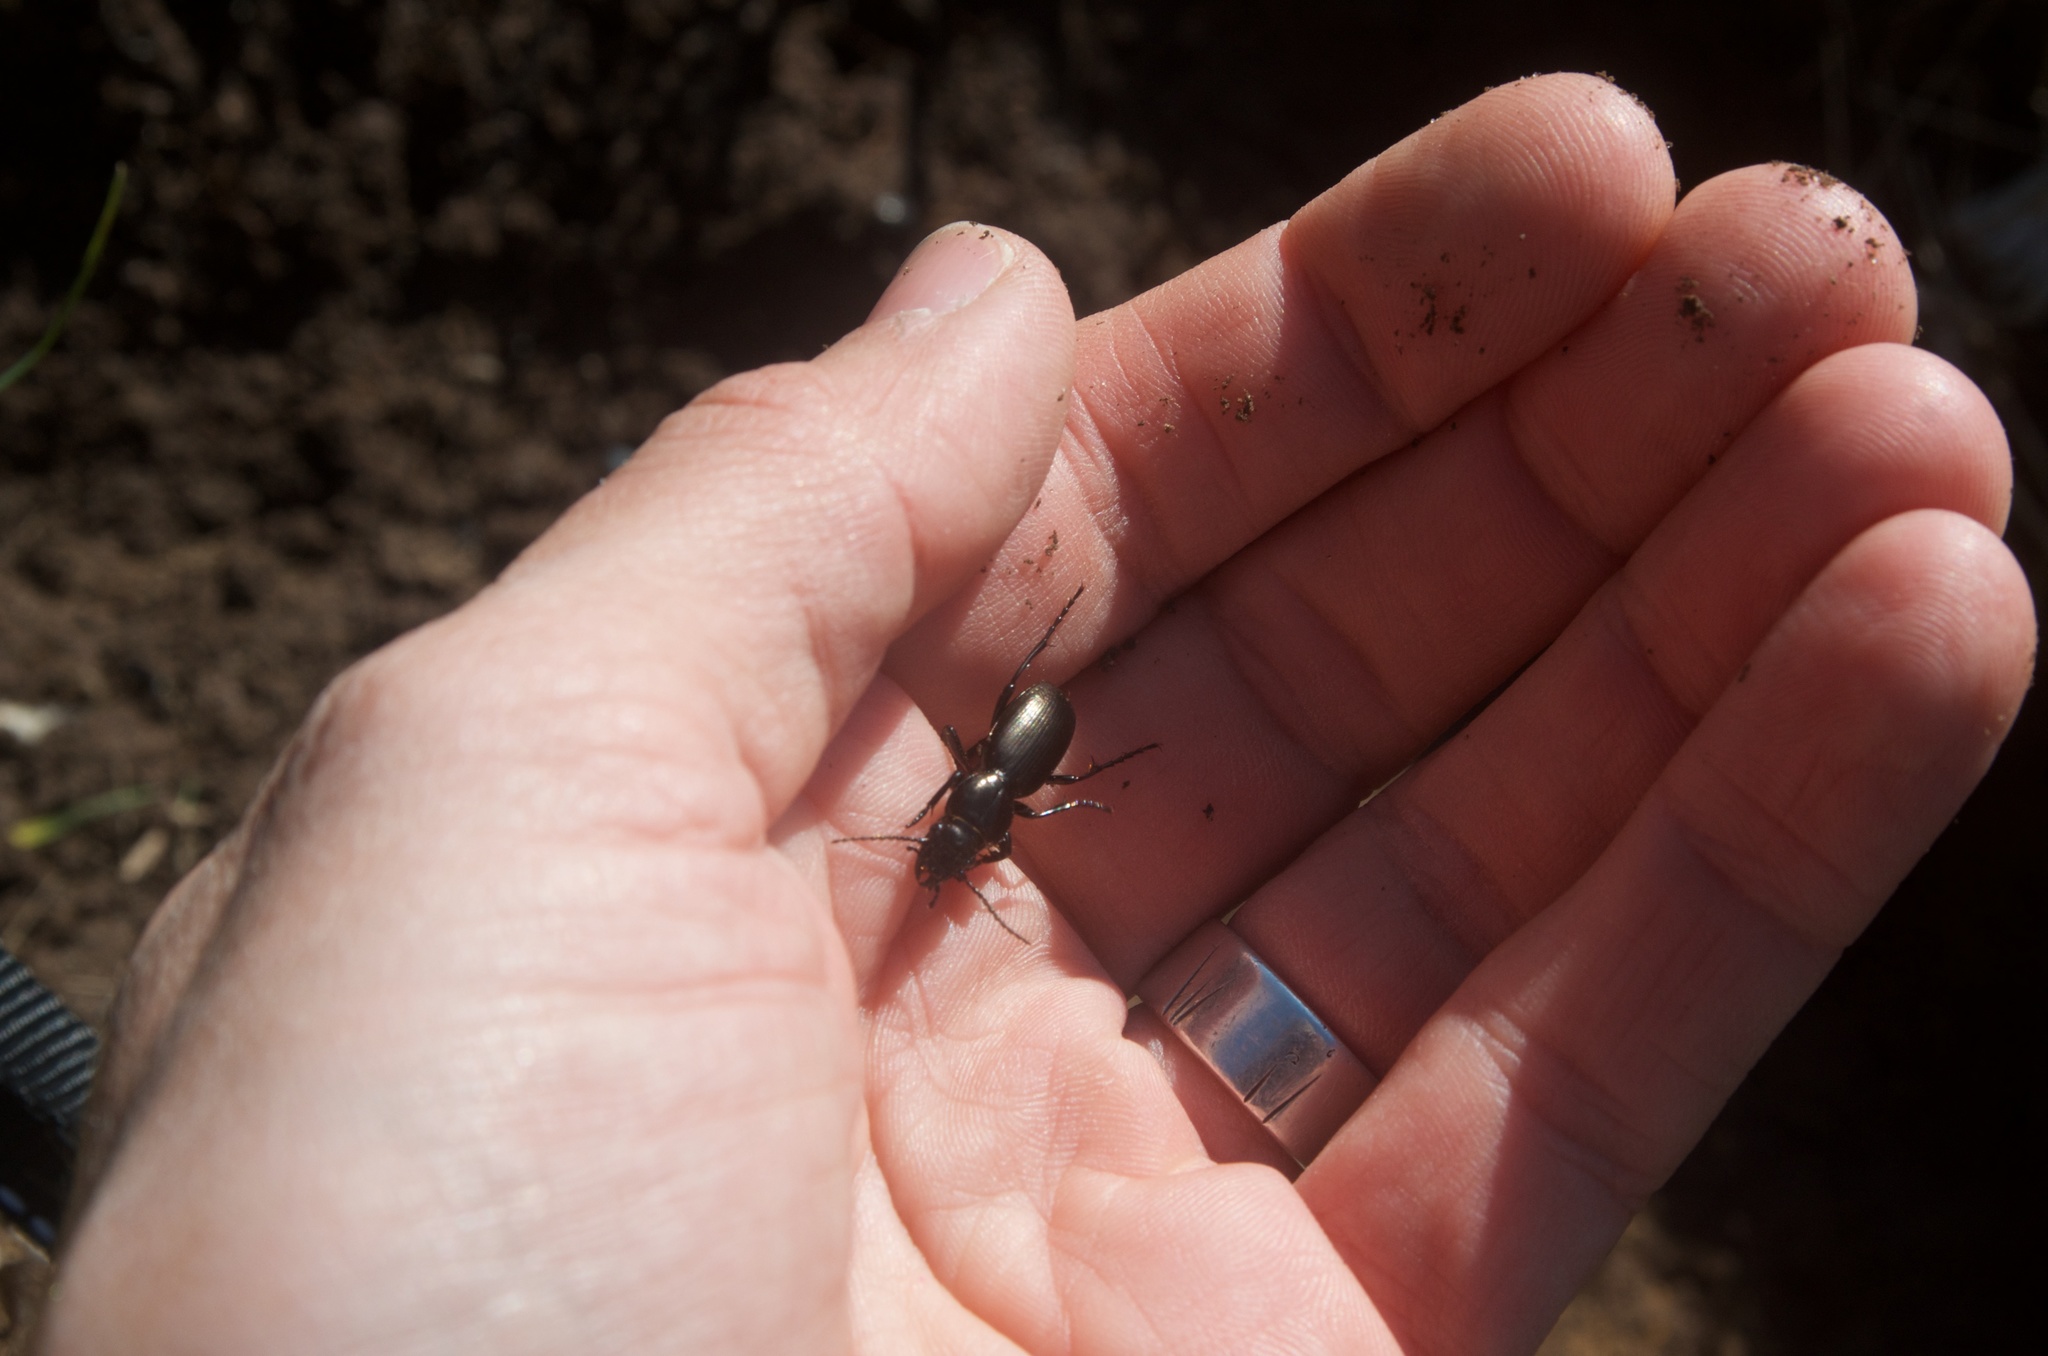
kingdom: Animalia
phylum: Arthropoda
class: Insecta
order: Coleoptera
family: Carabidae
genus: Oregus
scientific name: Oregus aereus
